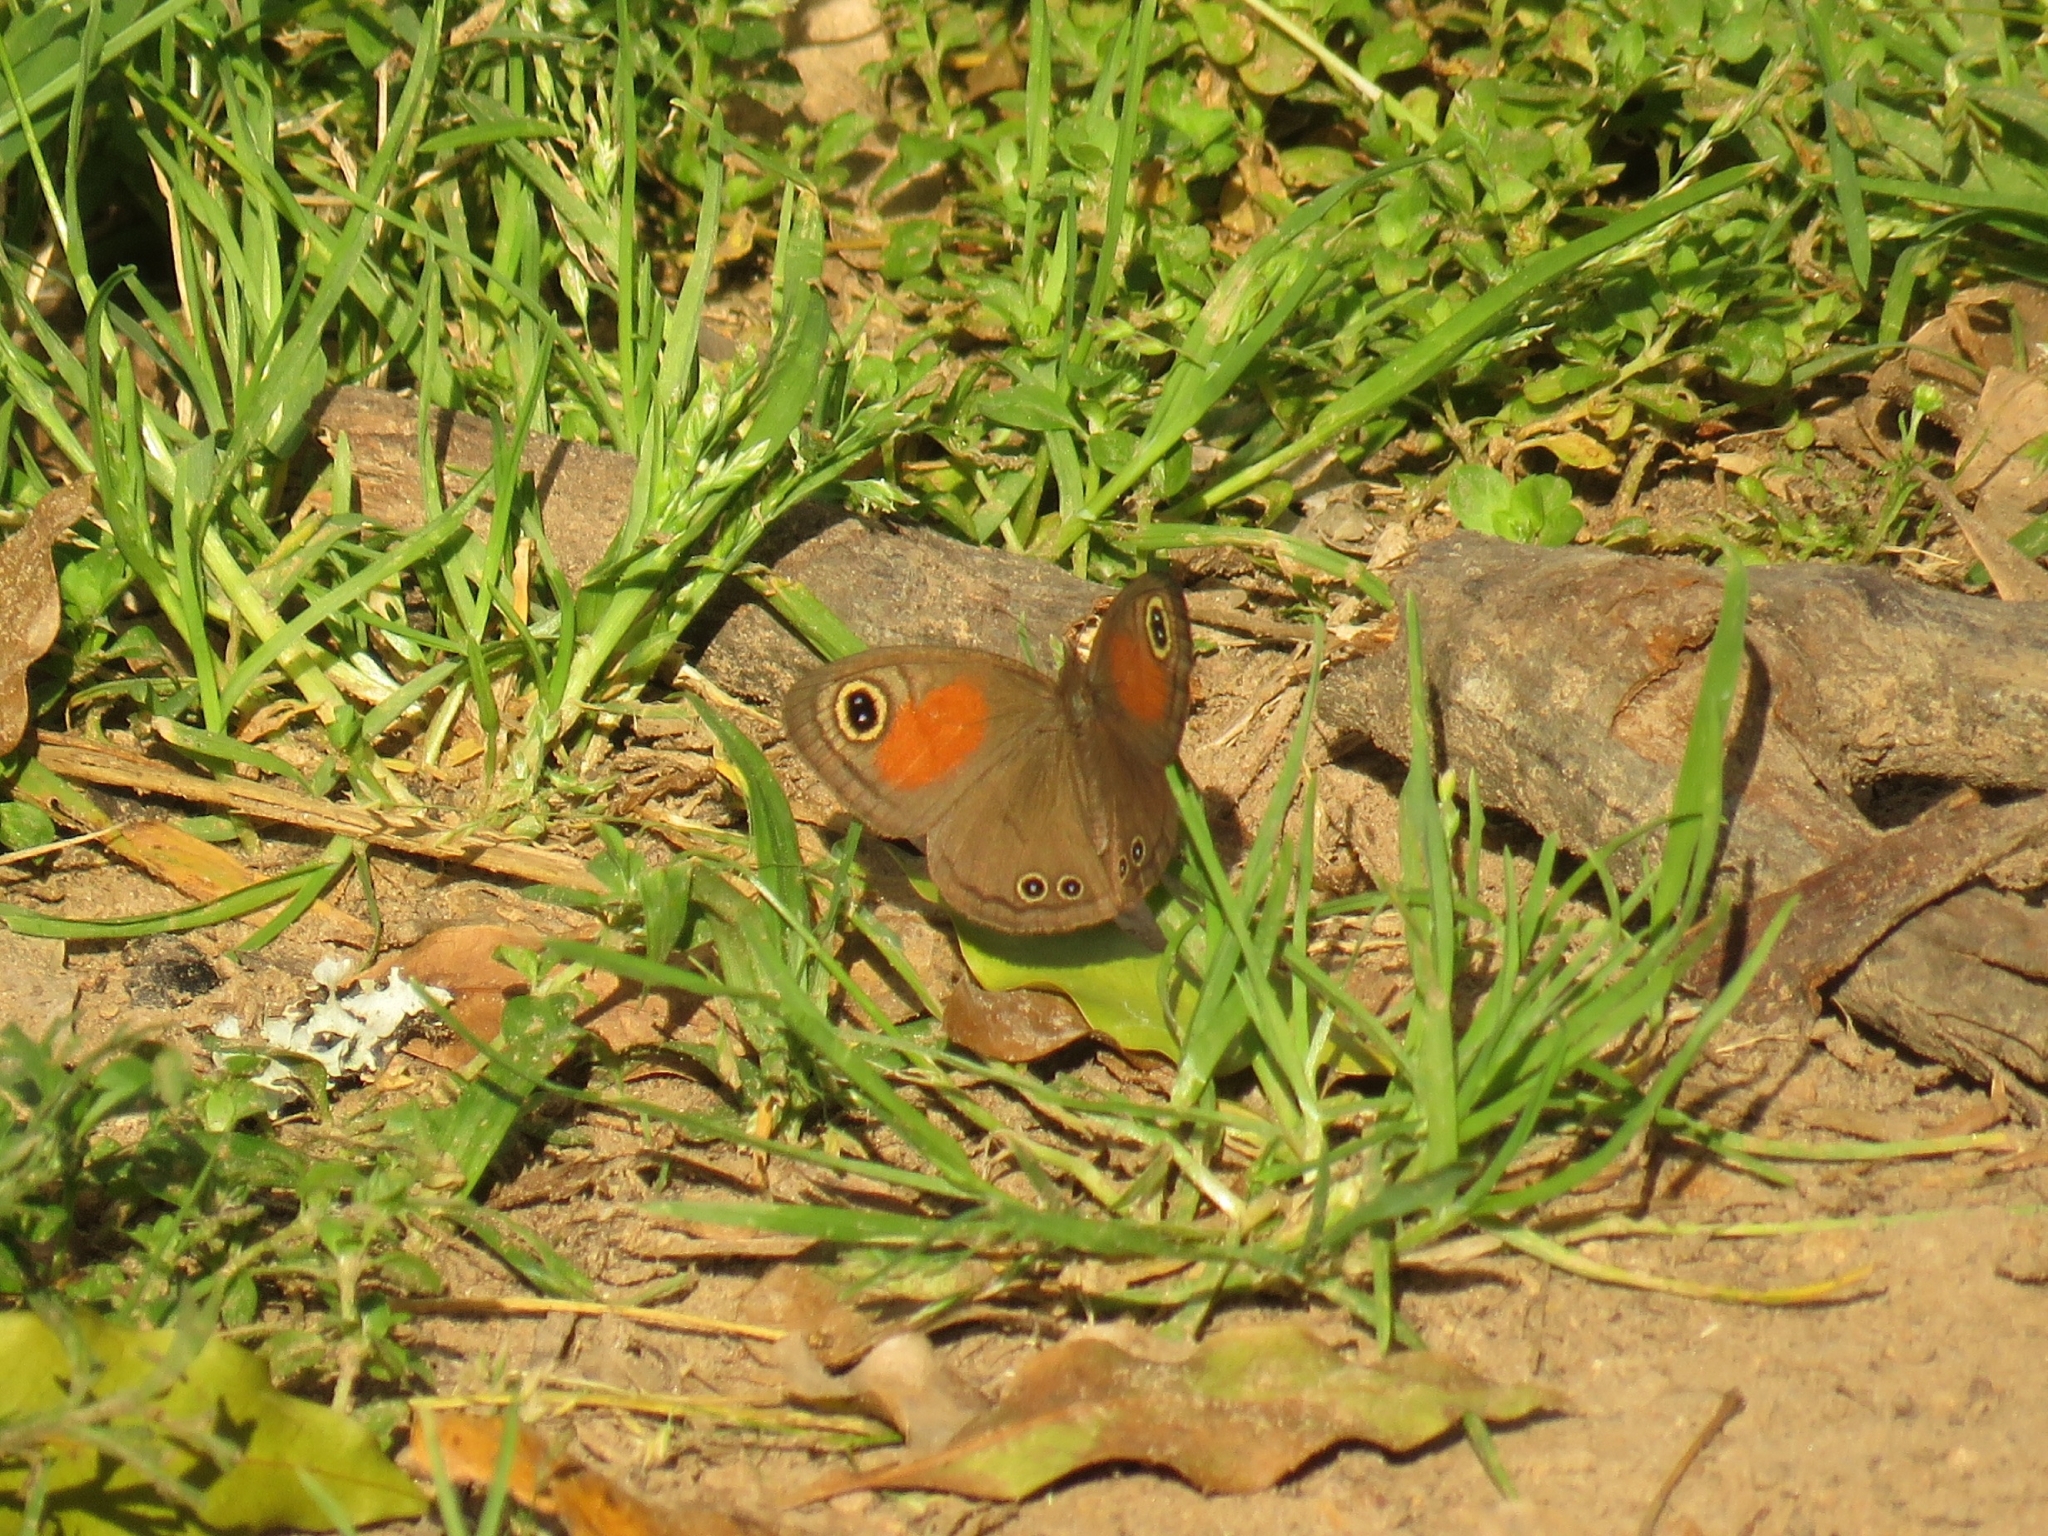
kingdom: Animalia
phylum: Arthropoda
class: Insecta
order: Lepidoptera
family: Nymphalidae
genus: Cassionympha
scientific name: Cassionympha cassius
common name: Rainforest brown
